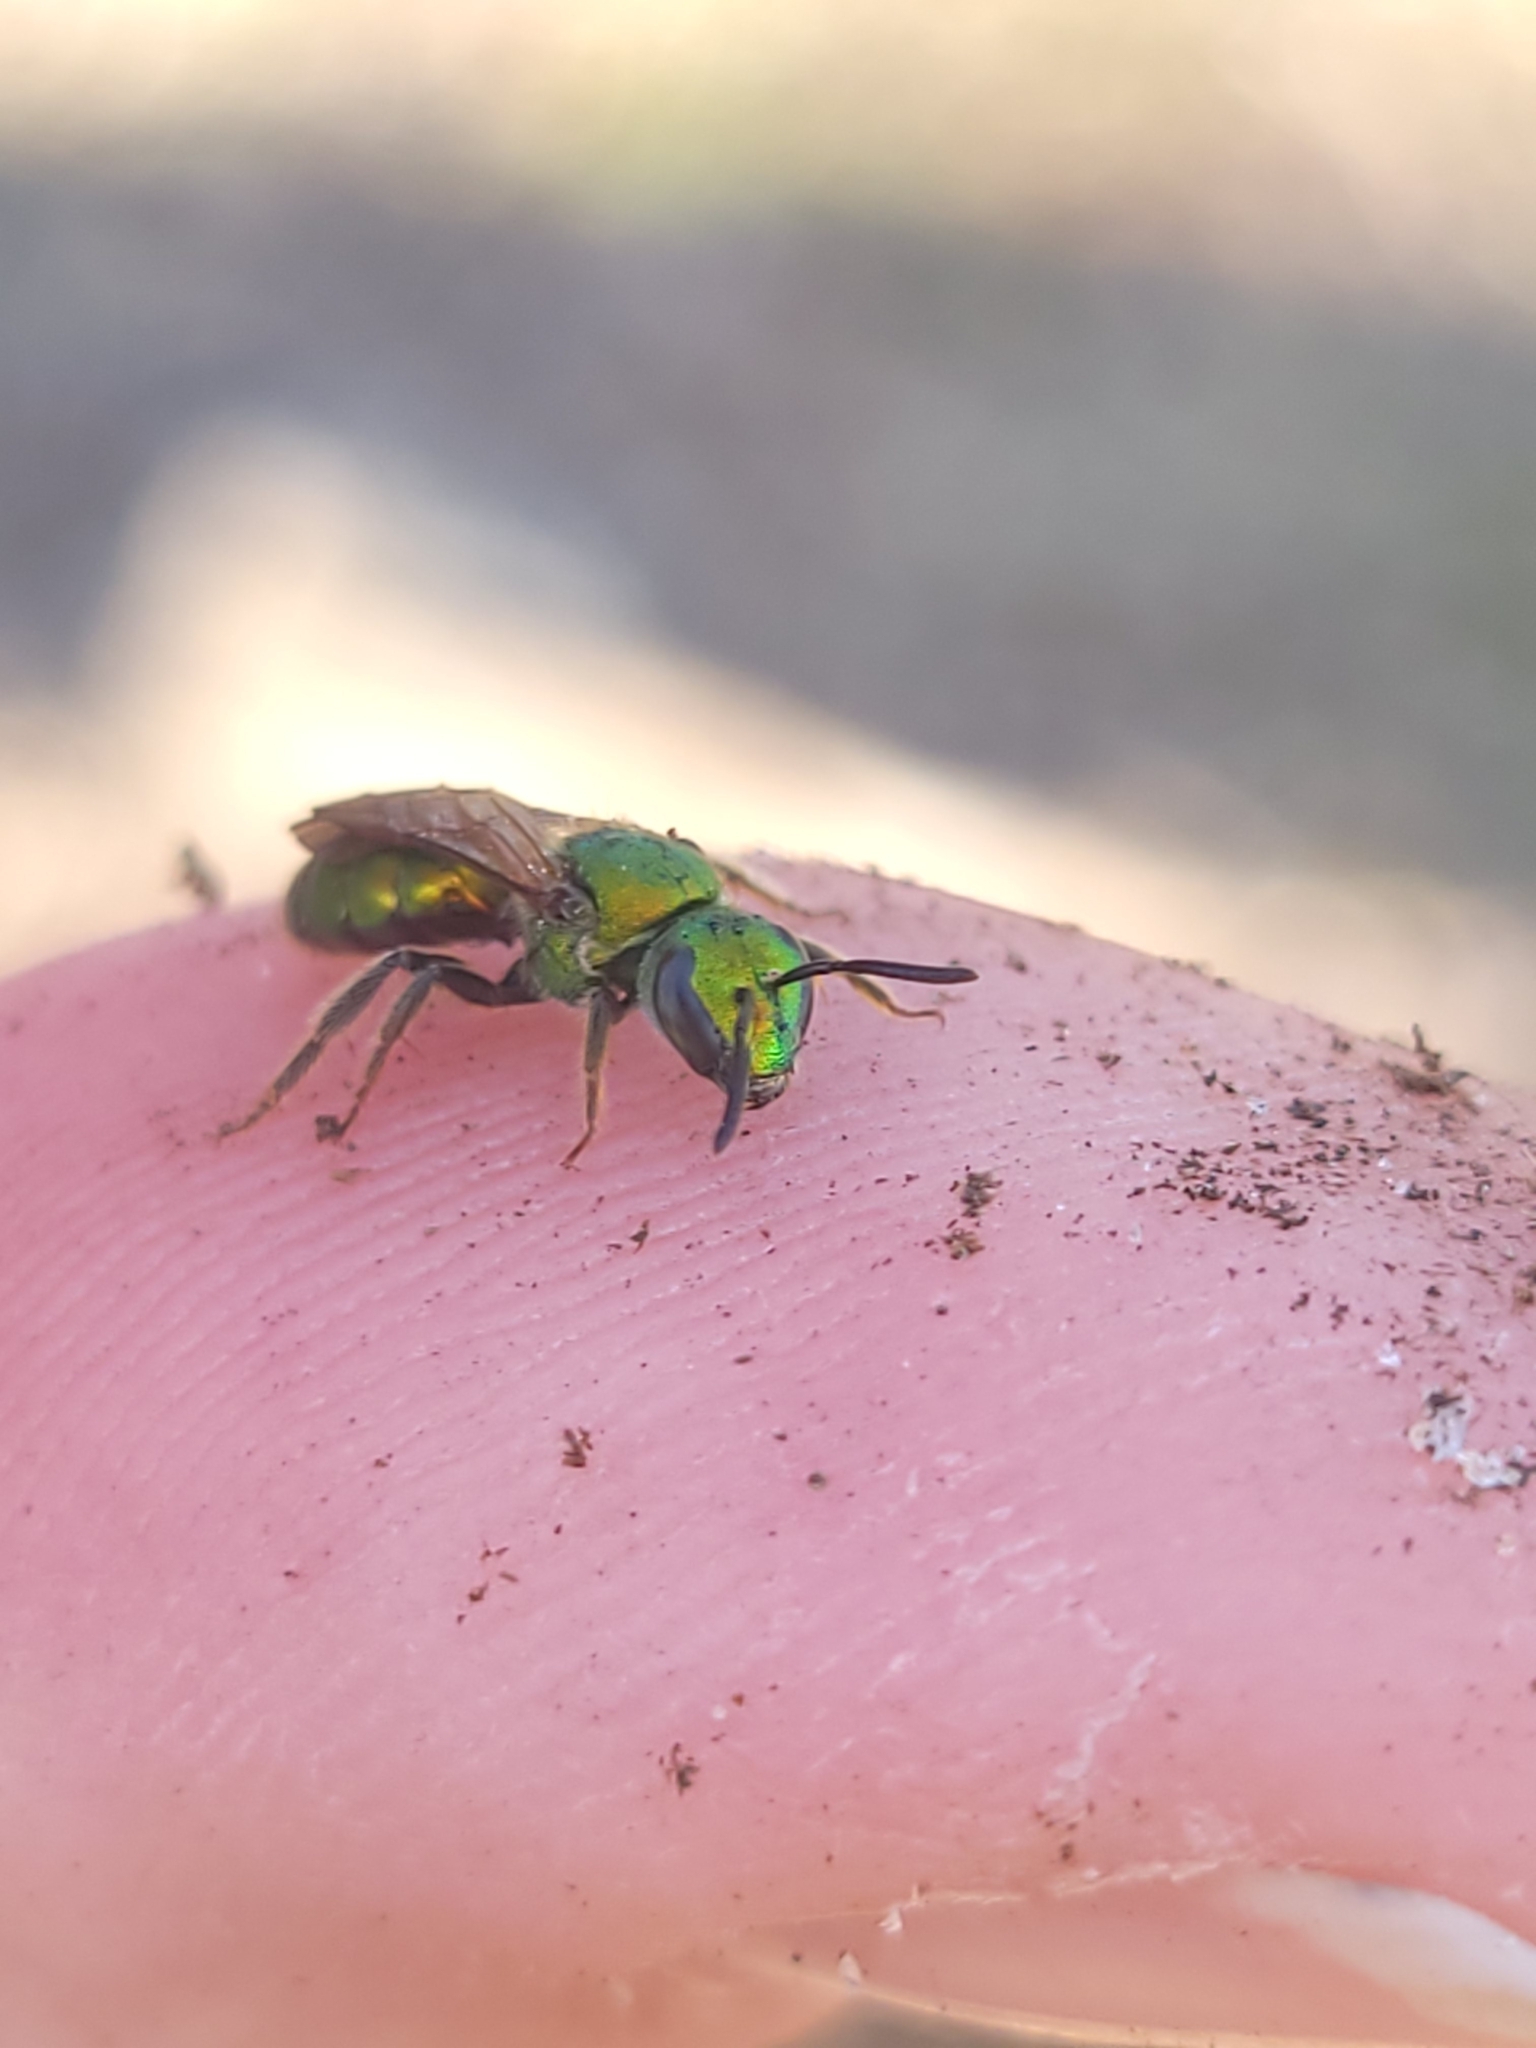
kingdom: Animalia
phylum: Arthropoda
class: Insecta
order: Hymenoptera
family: Halictidae
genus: Augochlora
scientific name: Augochlora pura
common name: Pure green sweat bee
